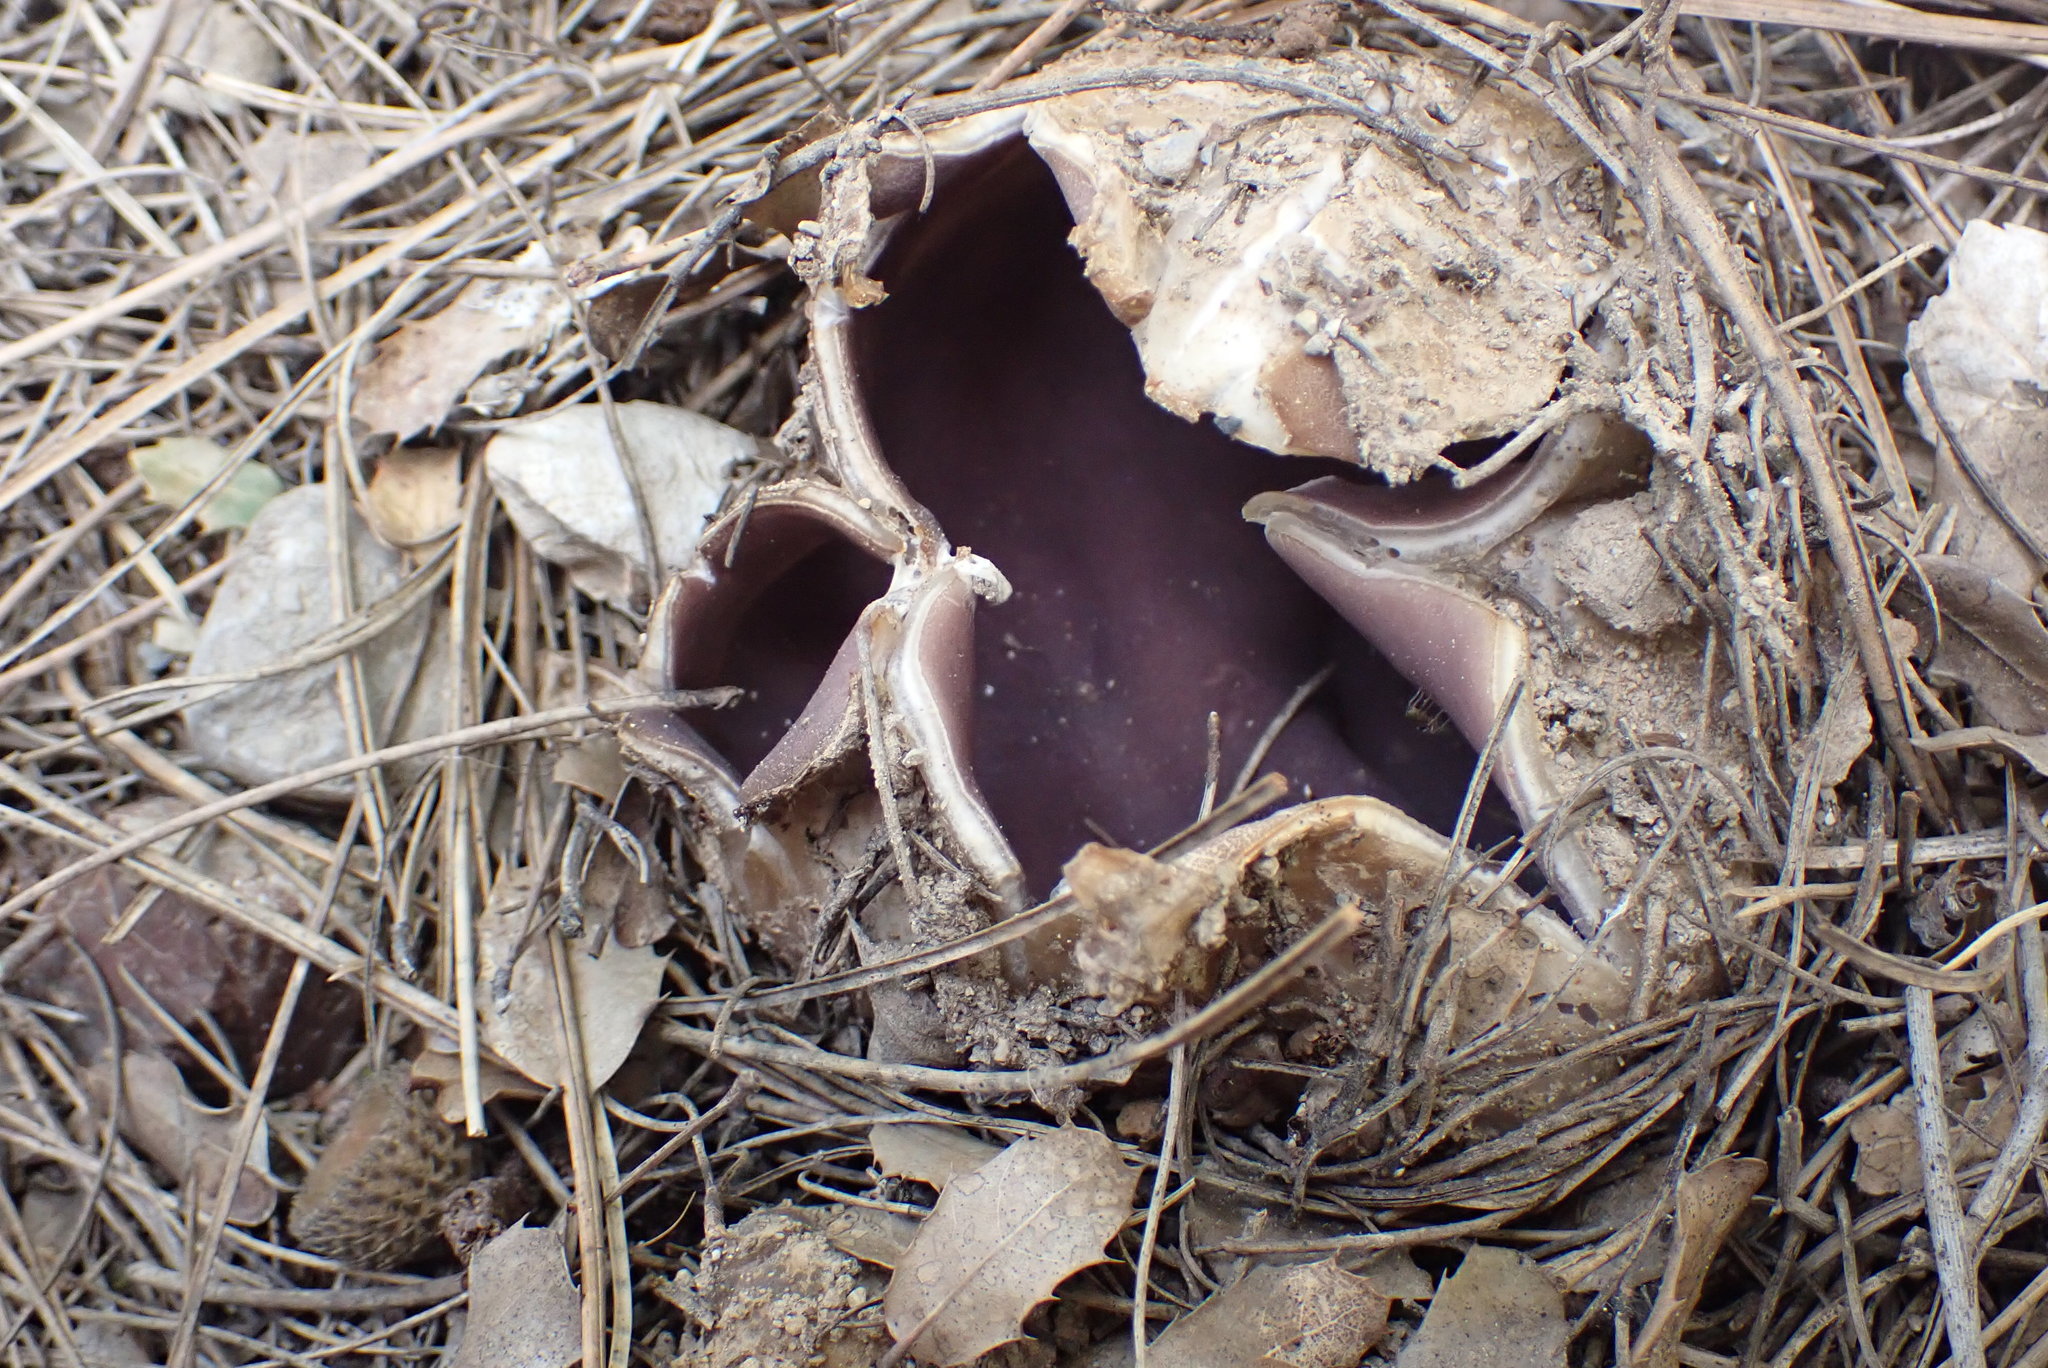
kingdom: Fungi
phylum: Ascomycota
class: Pezizomycetes
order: Pezizales
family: Pezizaceae
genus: Sarcosphaera
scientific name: Sarcosphaera coronaria
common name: Violet crowncup
